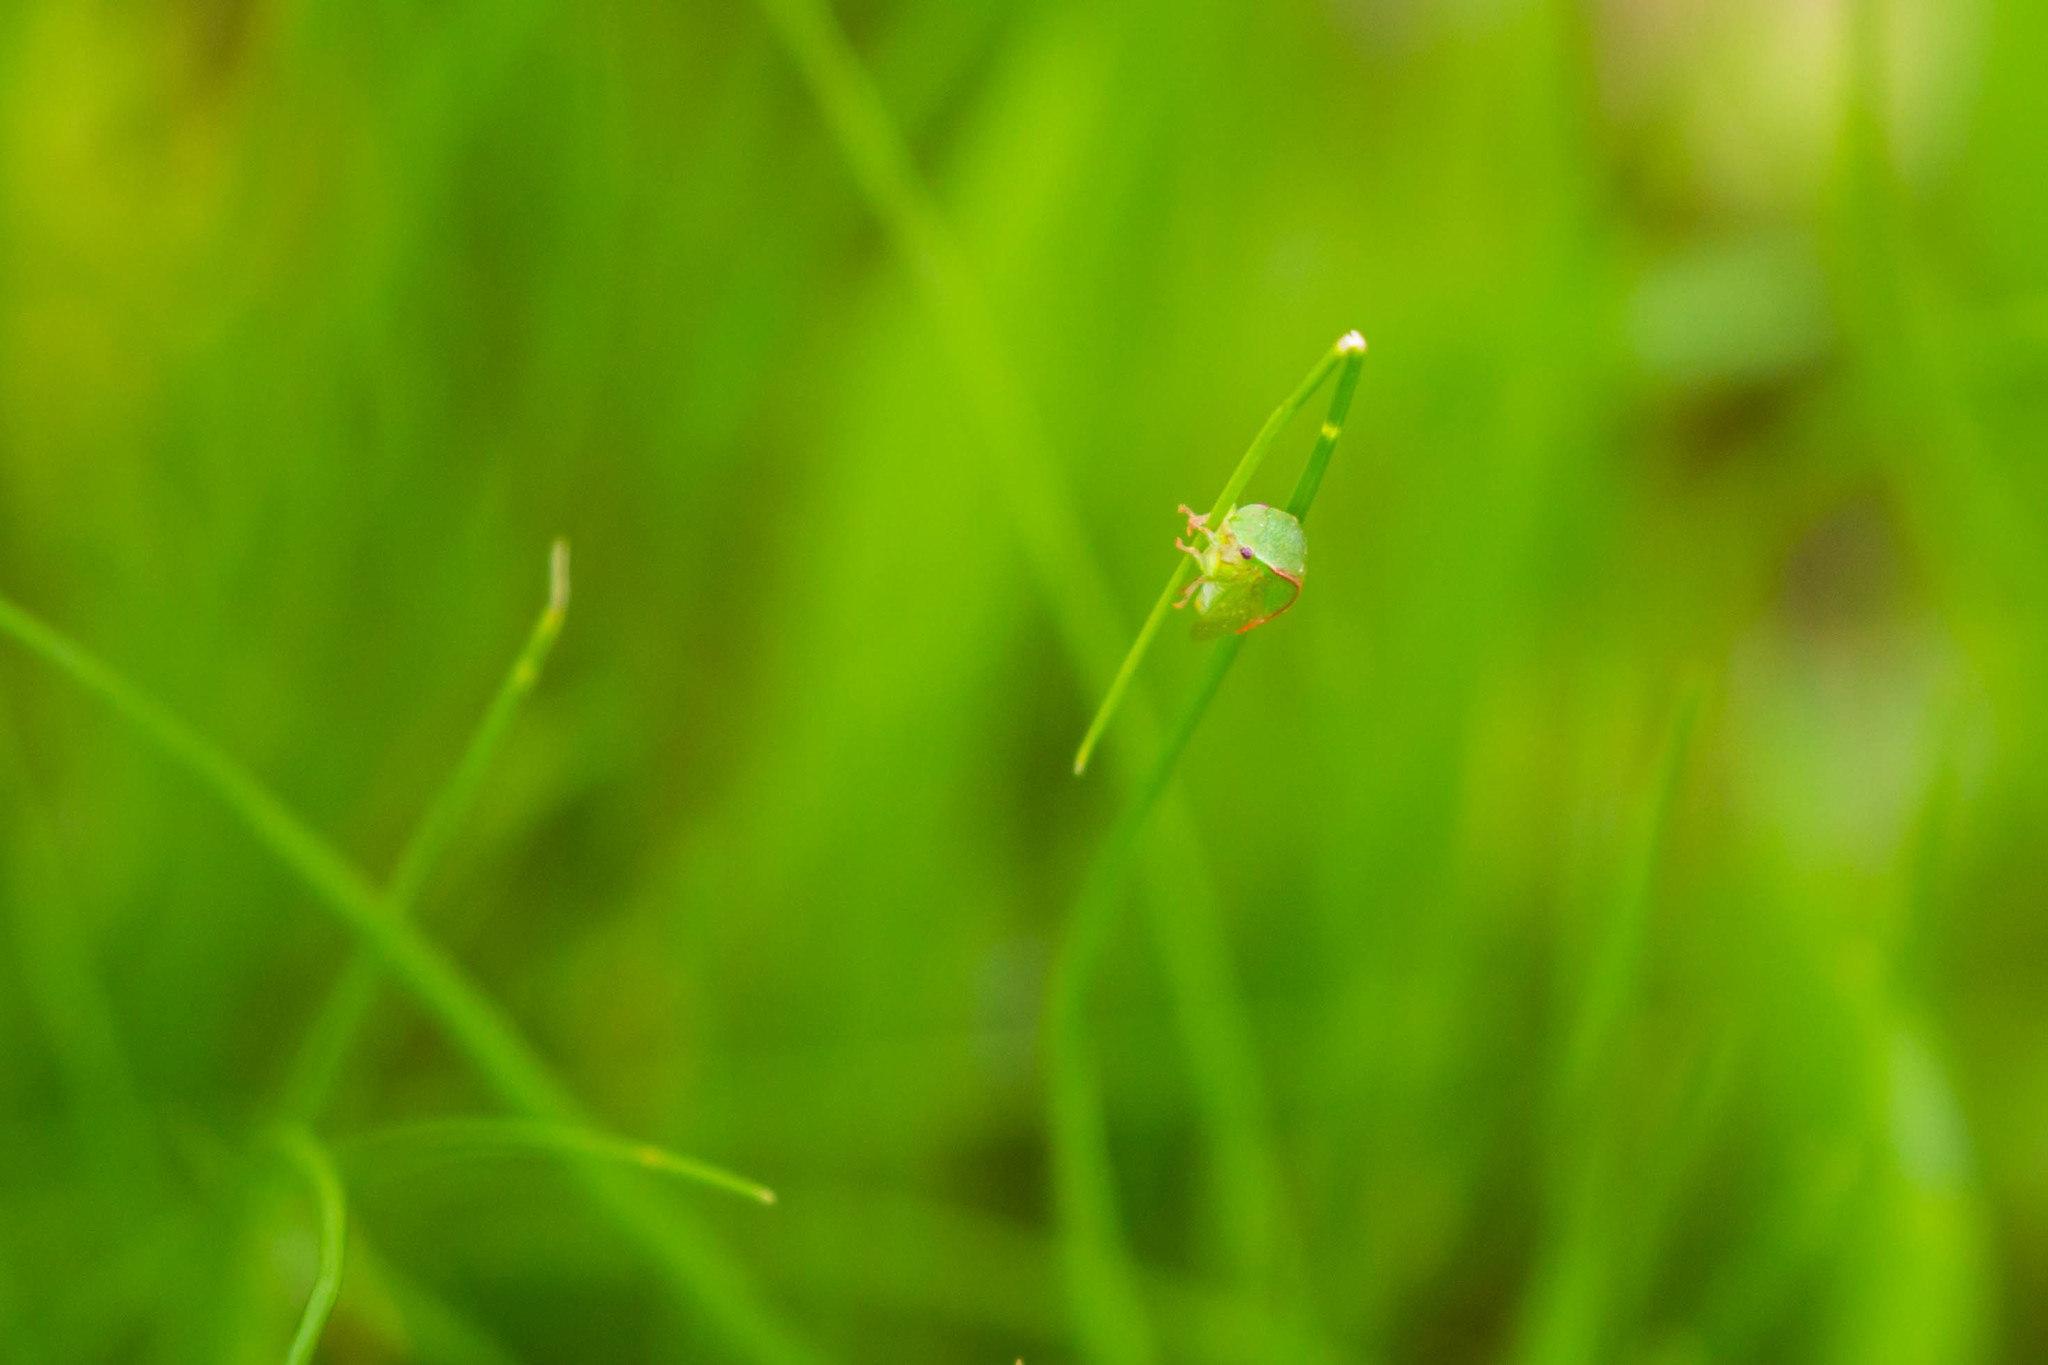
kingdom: Animalia
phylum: Arthropoda
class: Insecta
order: Hemiptera
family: Membracidae
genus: Spissistilus
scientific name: Spissistilus festina
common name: Membracid bug
